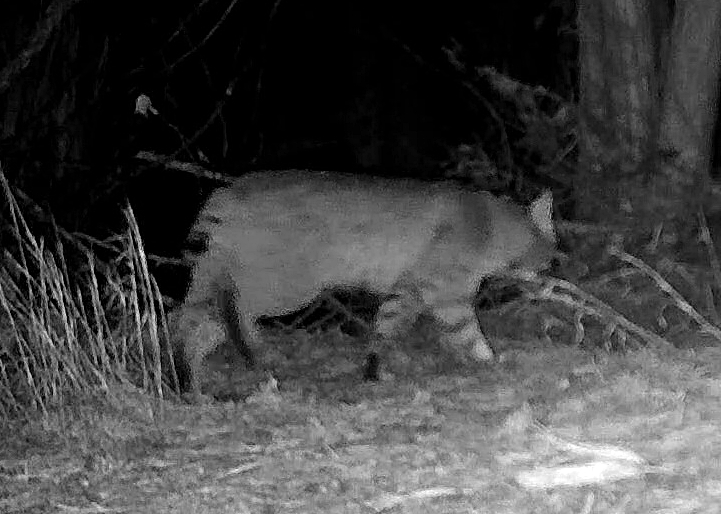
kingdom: Animalia
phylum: Chordata
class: Mammalia
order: Carnivora
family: Felidae
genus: Lynx
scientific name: Lynx rufus
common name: Bobcat
